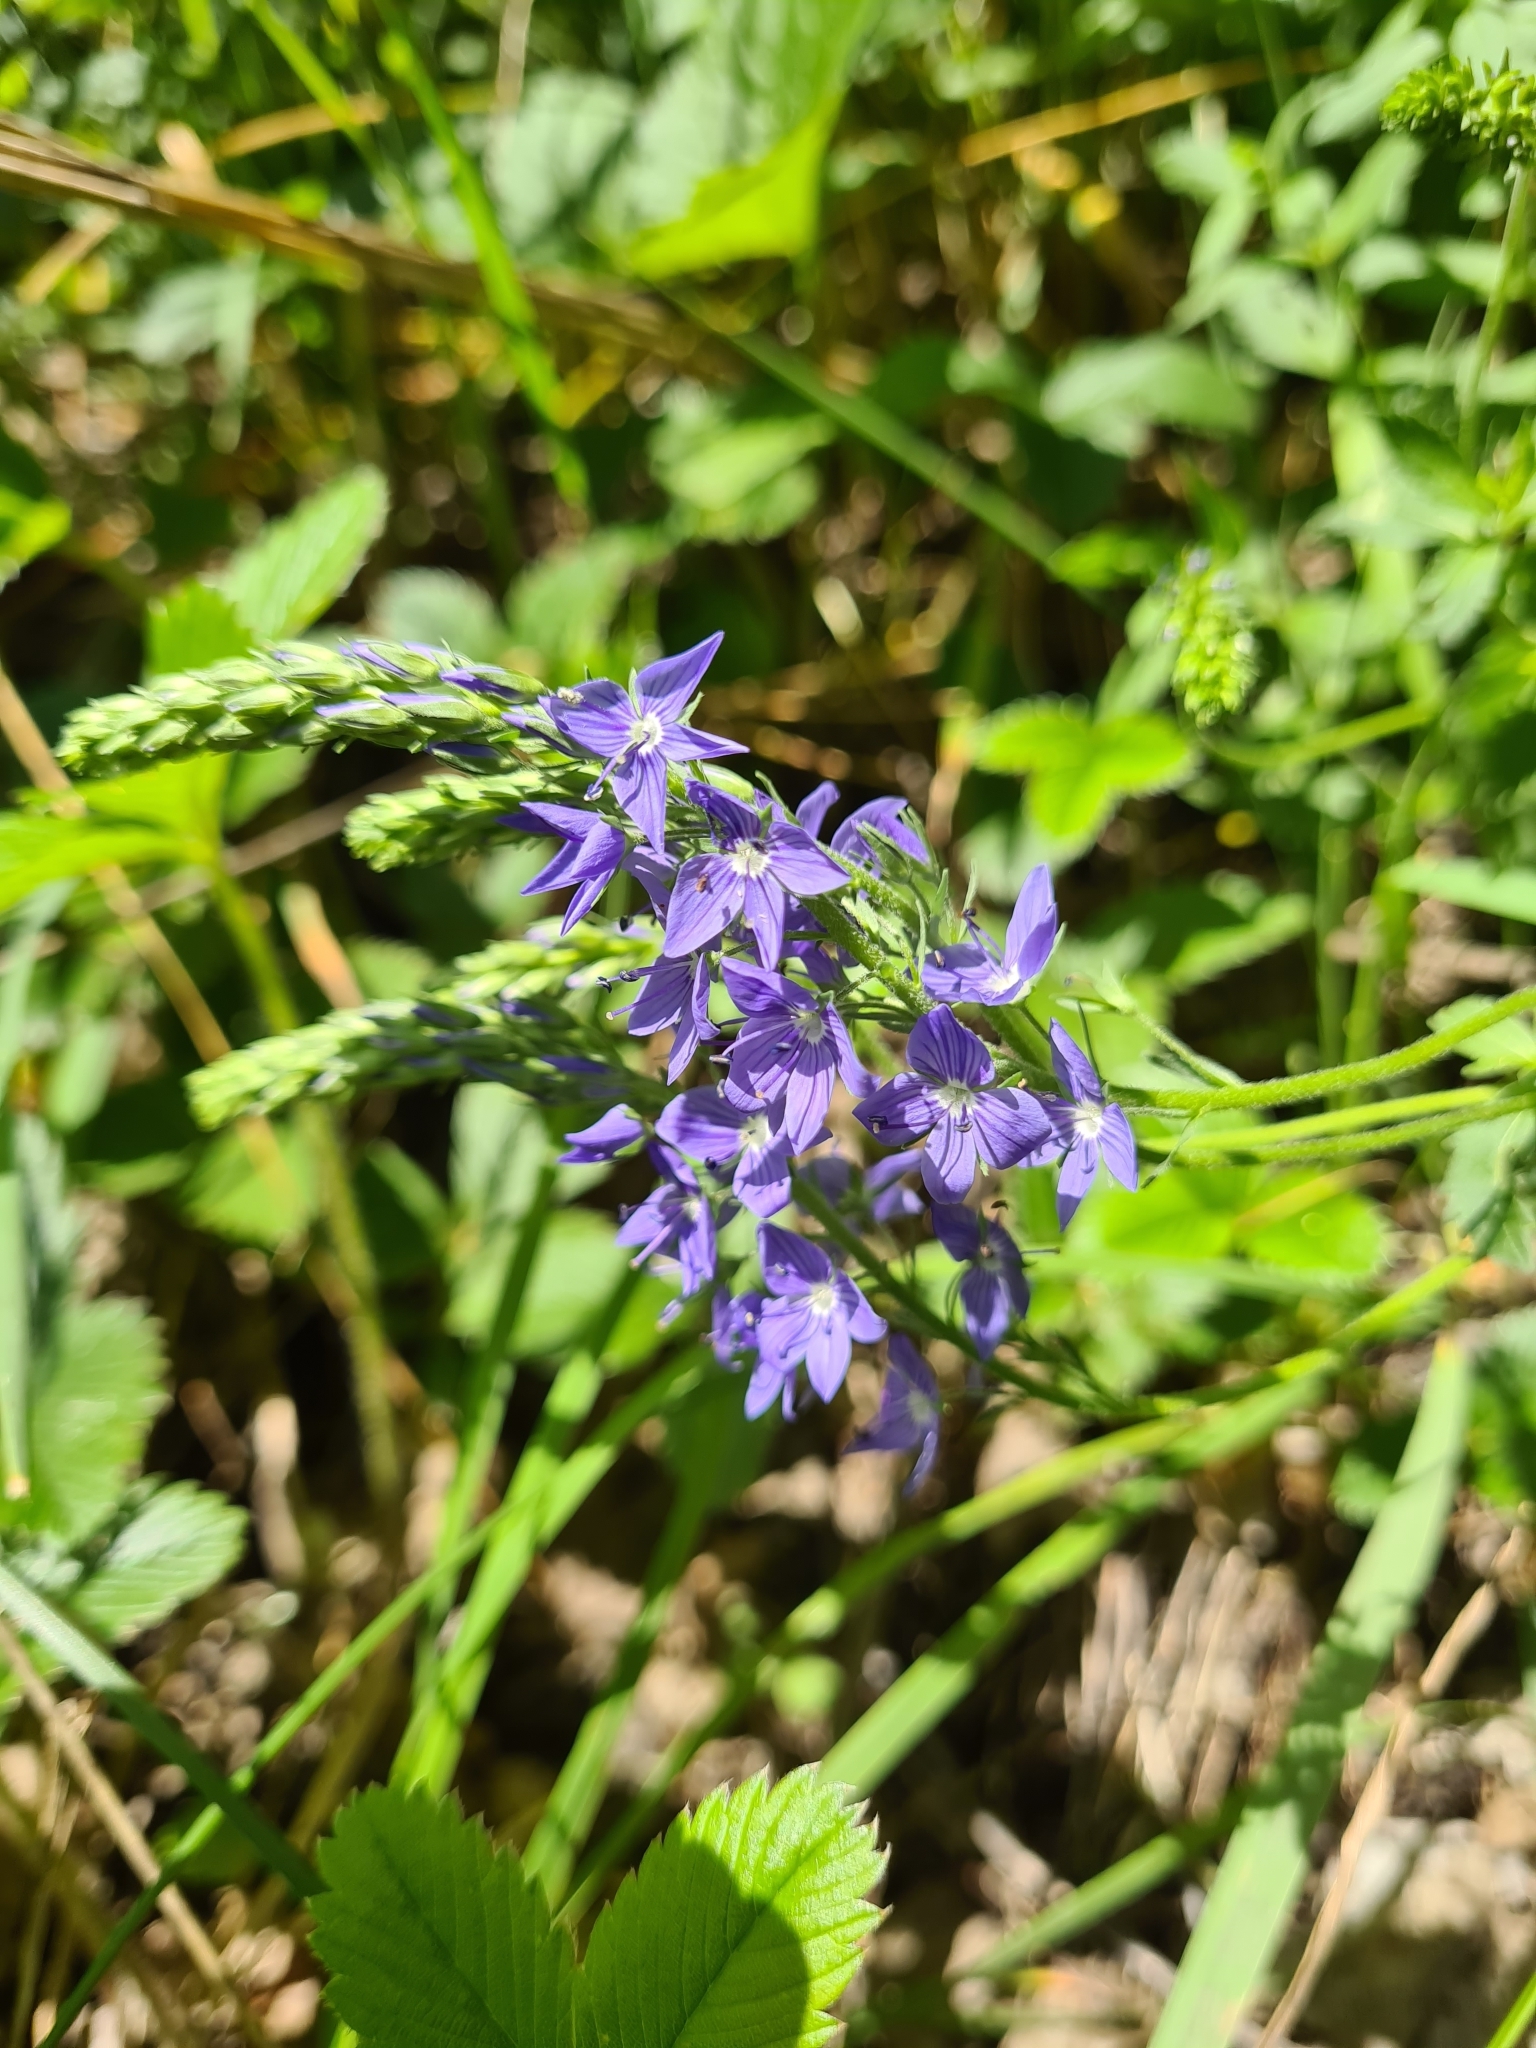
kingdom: Plantae
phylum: Tracheophyta
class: Magnoliopsida
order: Lamiales
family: Plantaginaceae
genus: Veronica
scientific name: Veronica teucrium
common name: Large speedwell
